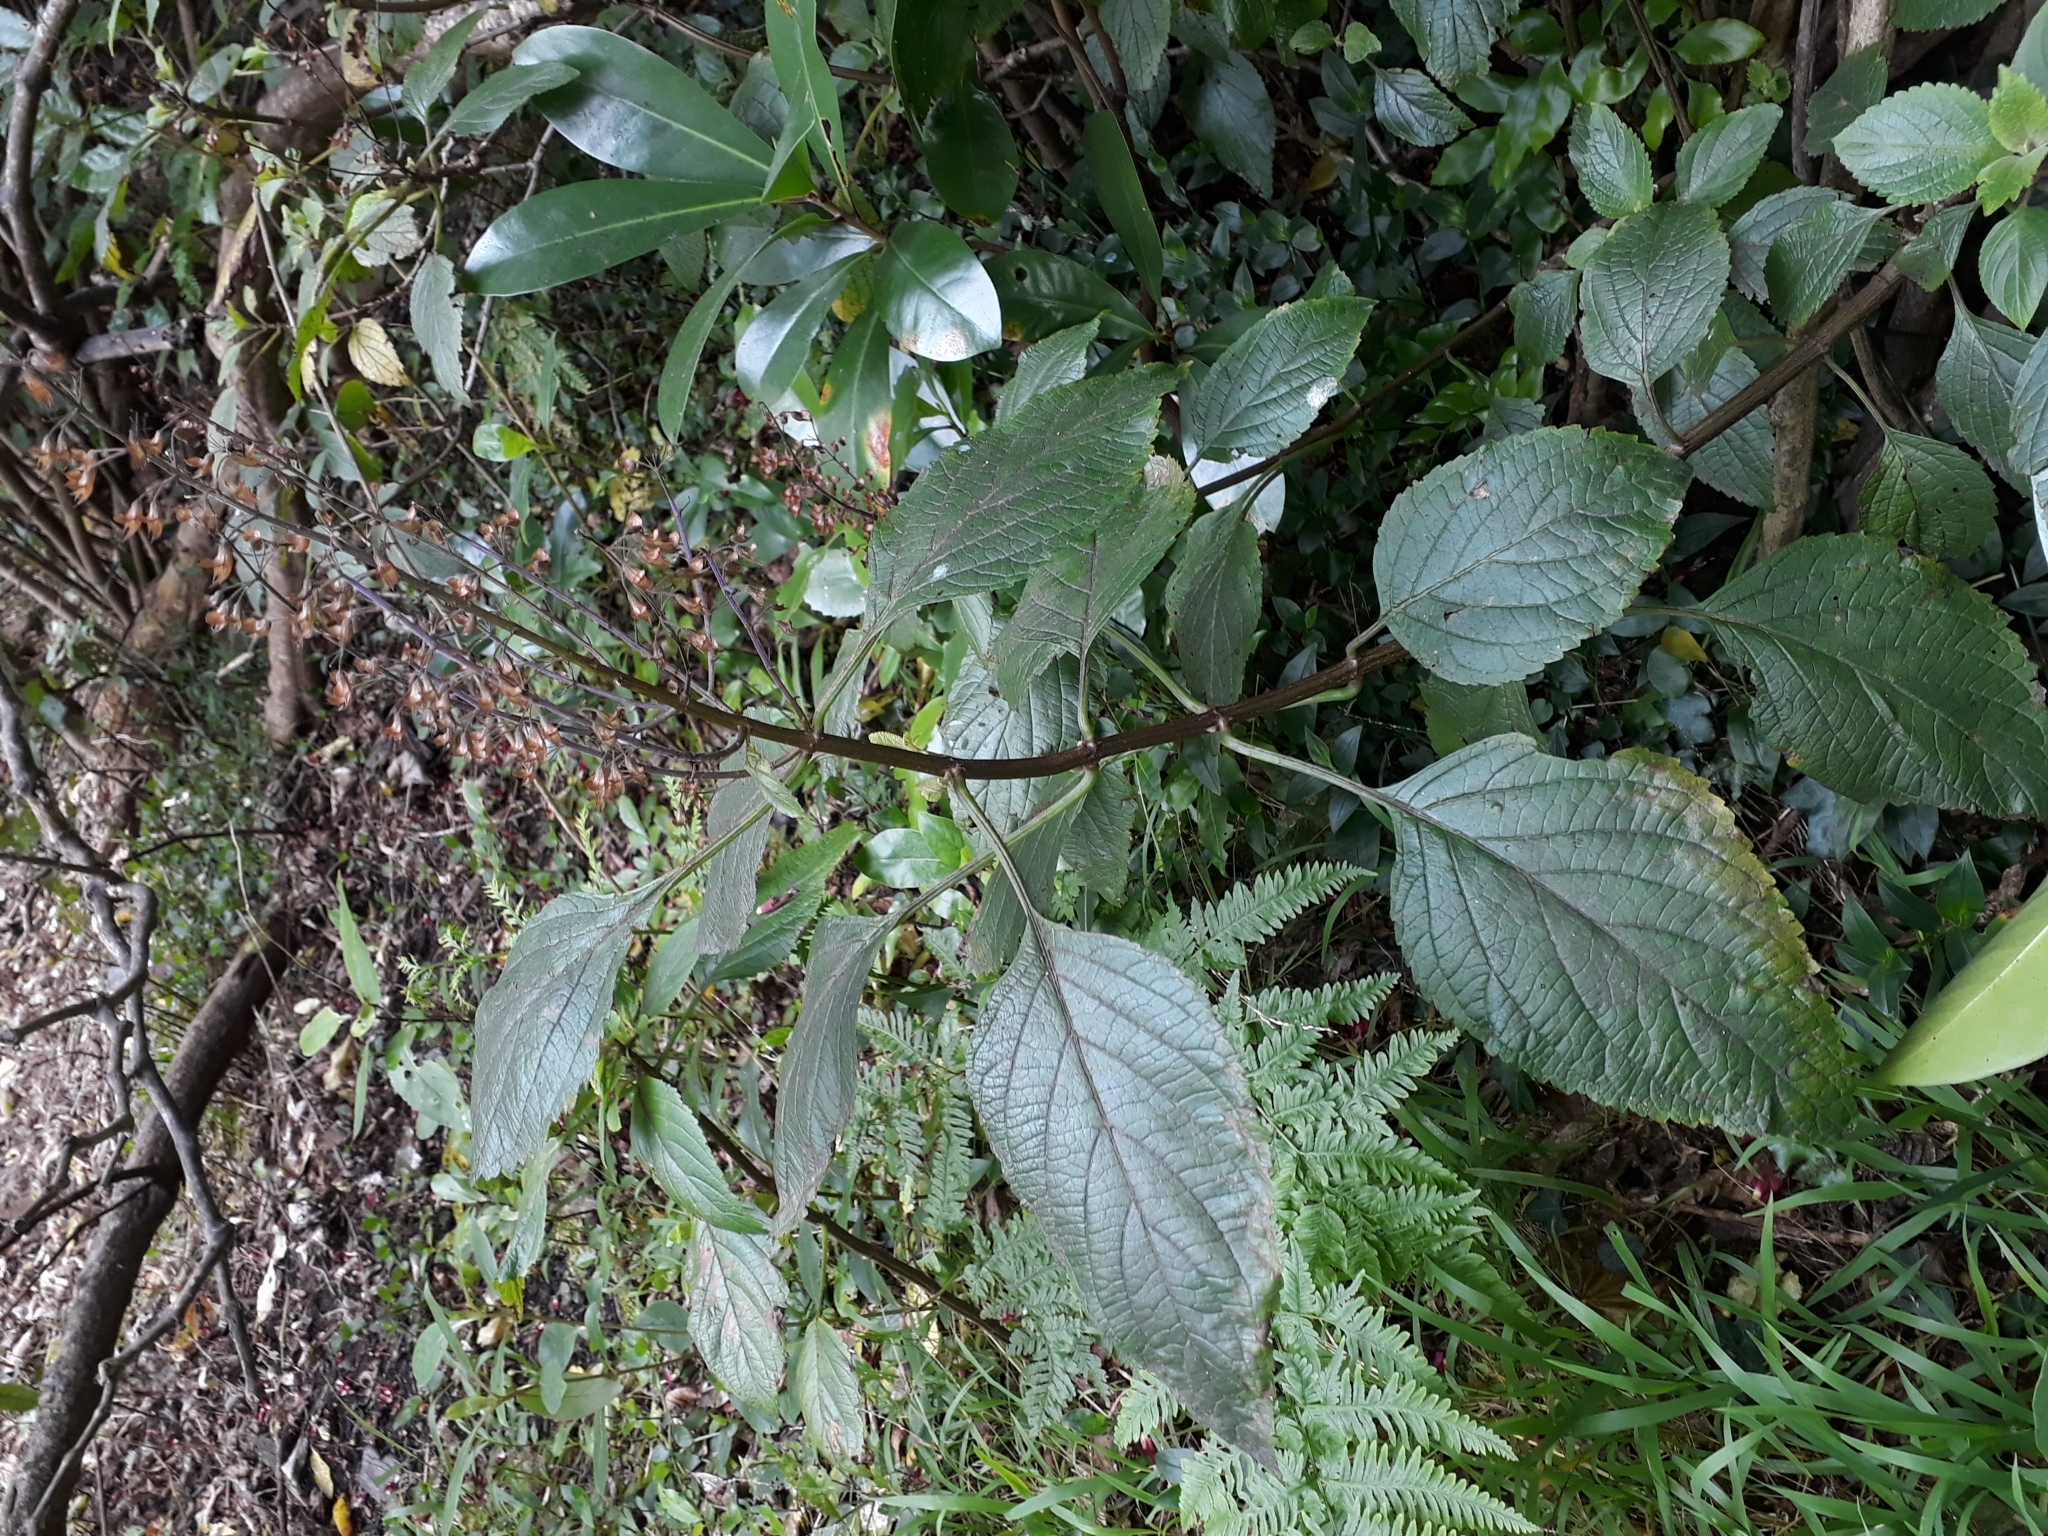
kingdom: Plantae
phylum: Tracheophyta
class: Magnoliopsida
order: Lamiales
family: Lamiaceae
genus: Plectranthus
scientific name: Plectranthus ecklonii
